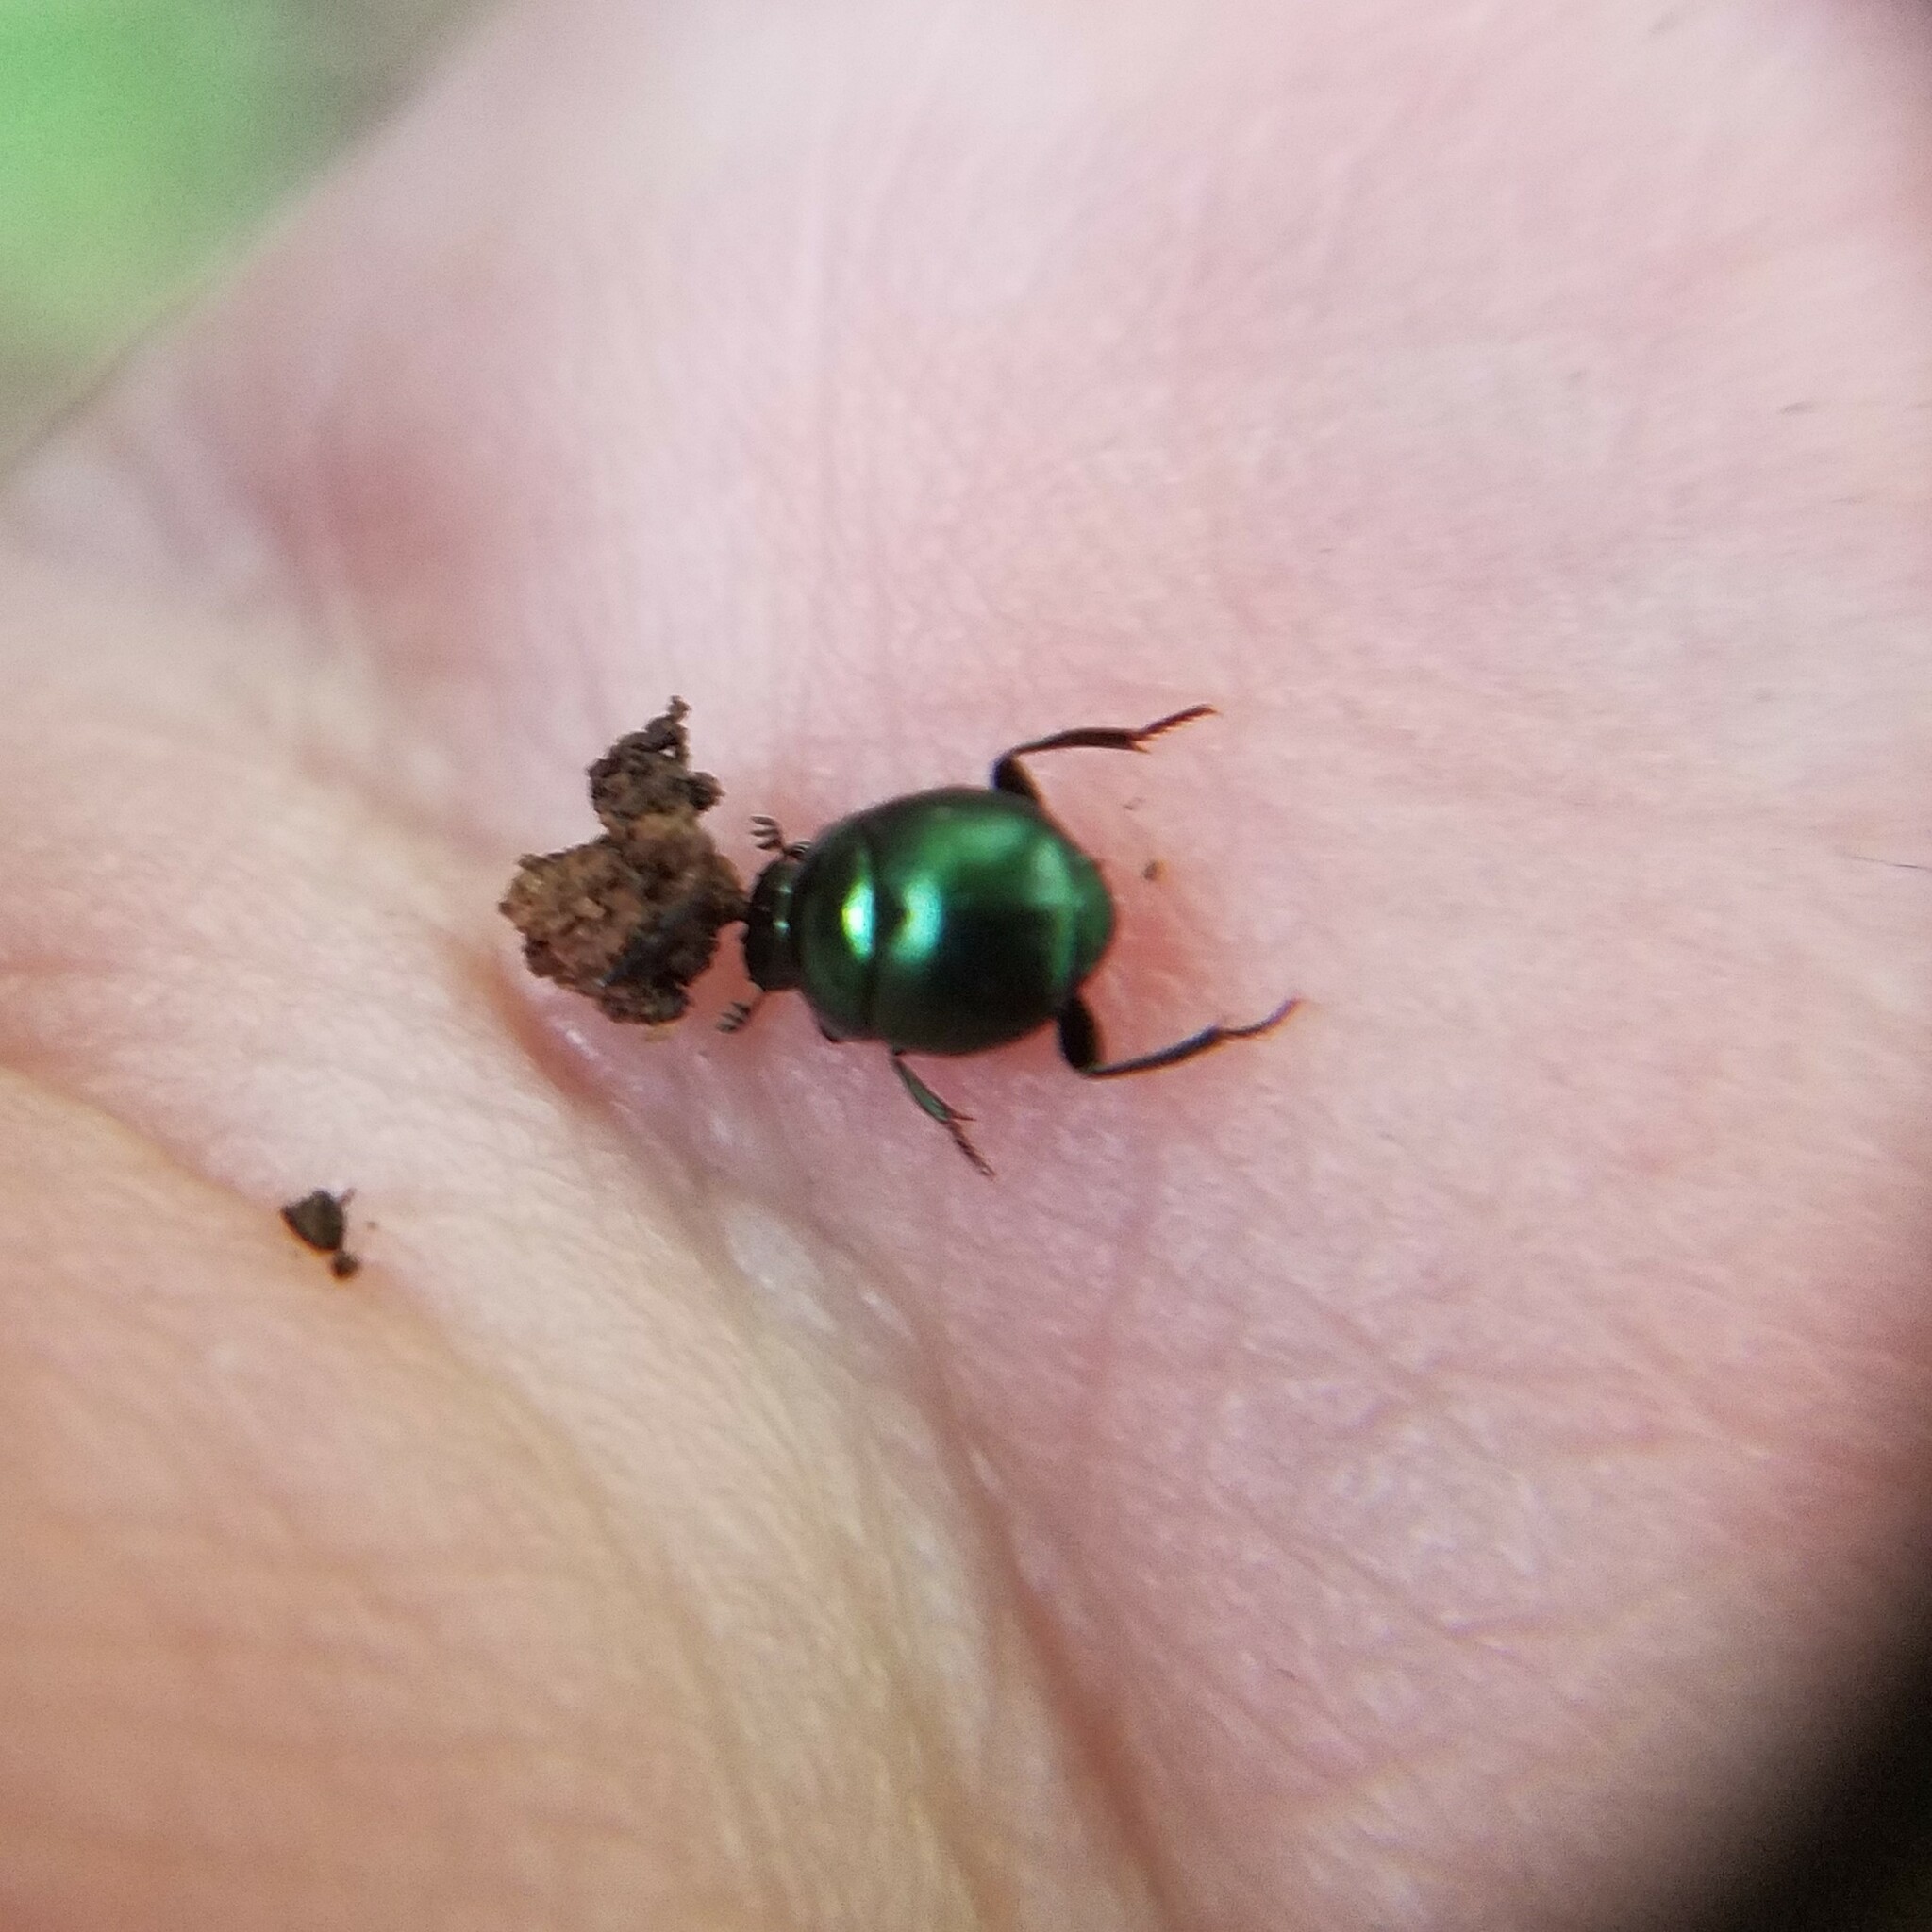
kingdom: Animalia
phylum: Arthropoda
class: Insecta
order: Coleoptera
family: Scarabaeidae
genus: Canthon
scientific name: Canthon viridis
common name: Tumblebug
